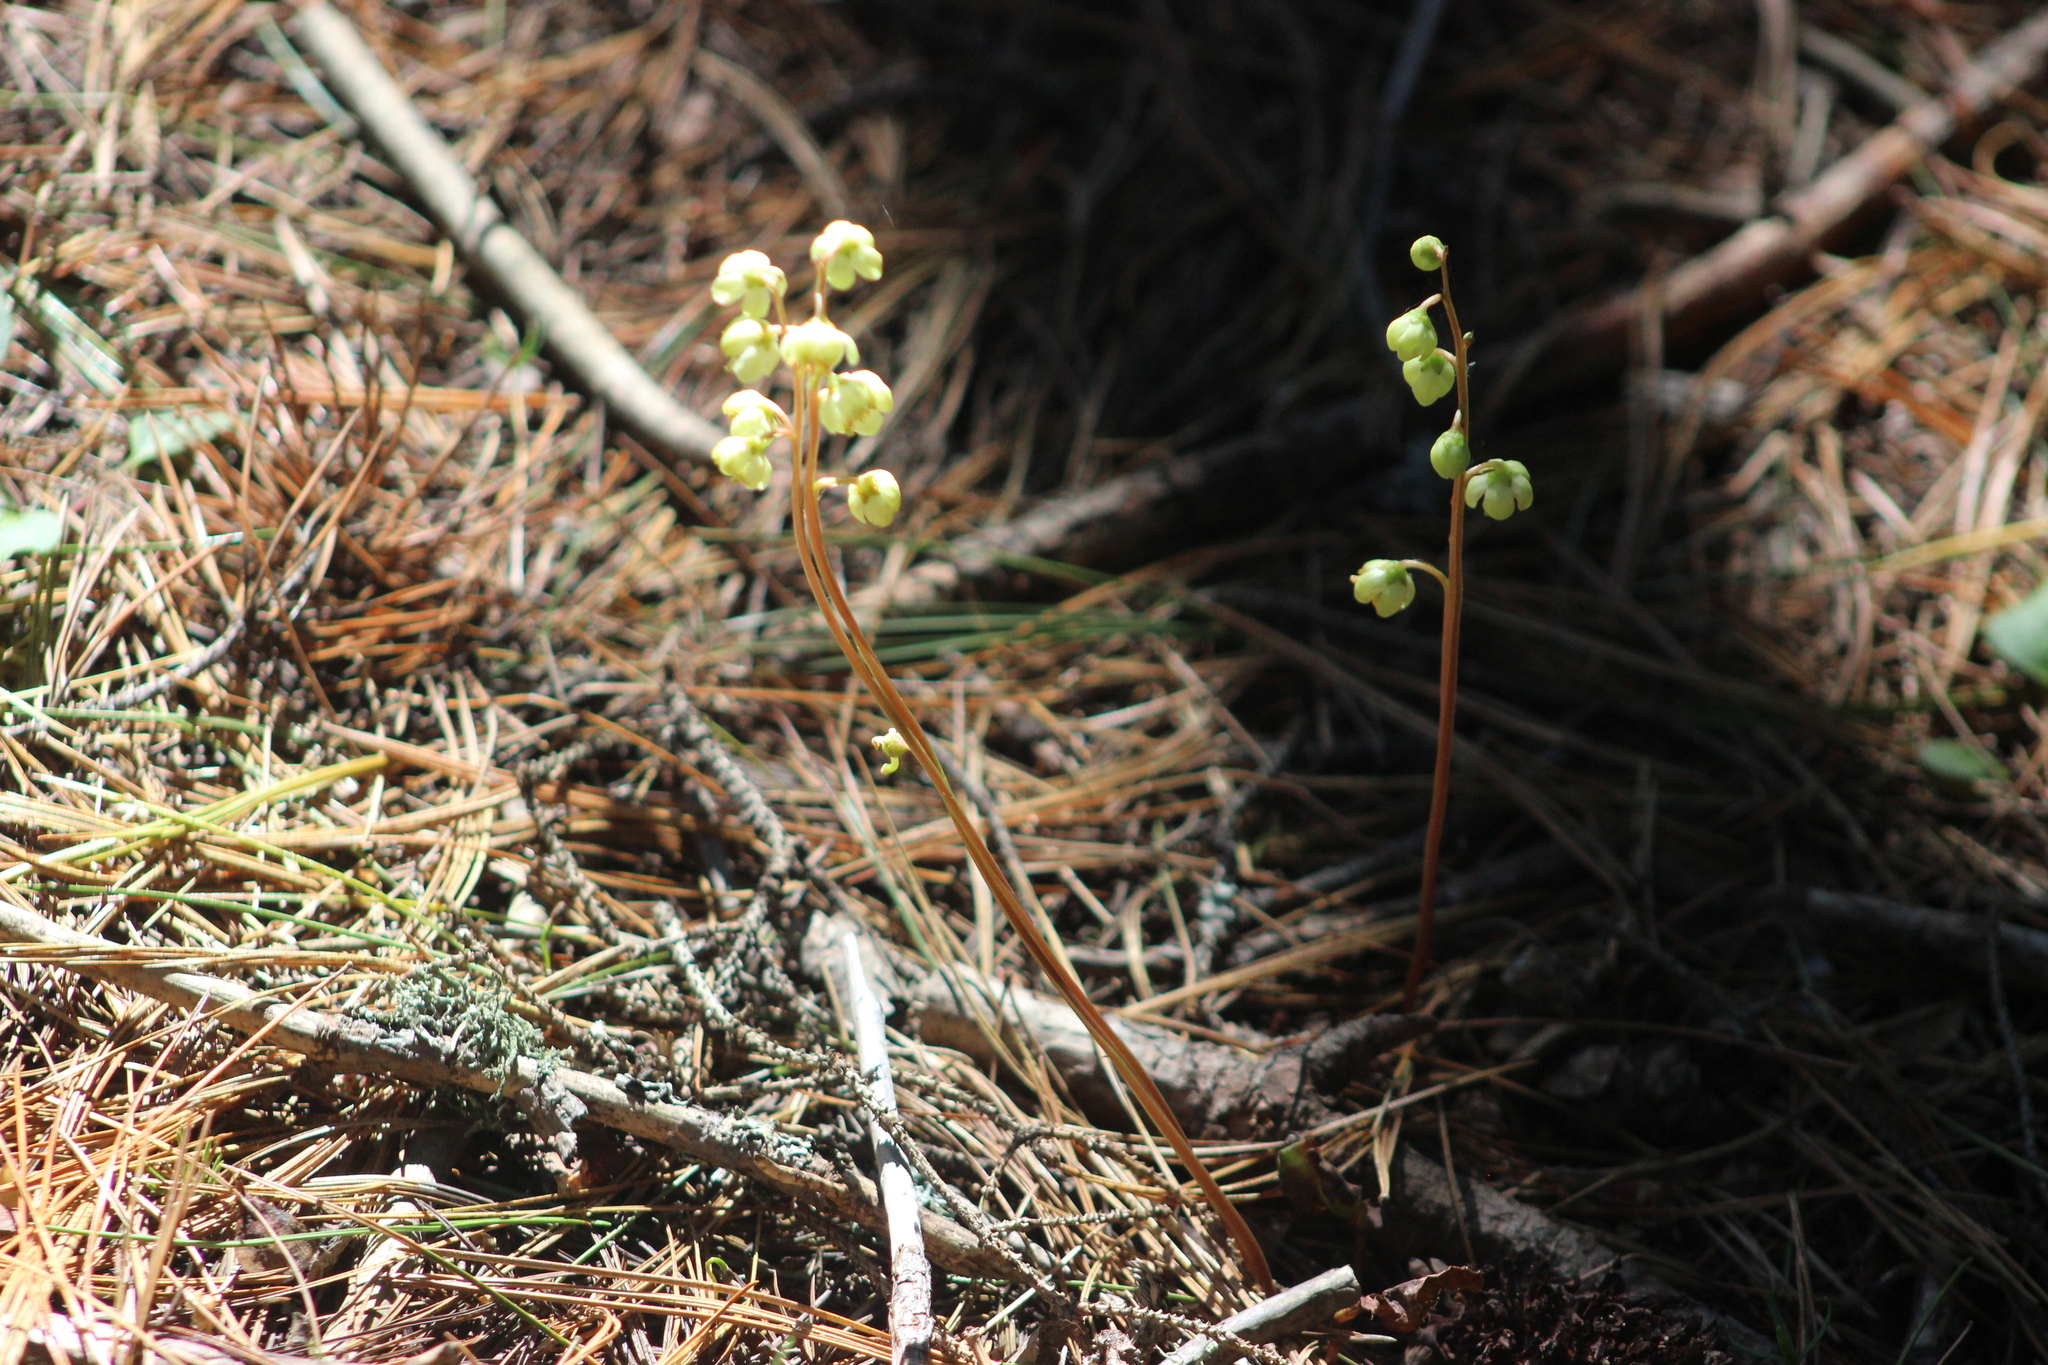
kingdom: Plantae
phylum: Tracheophyta
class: Magnoliopsida
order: Ericales
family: Ericaceae
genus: Pyrola
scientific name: Pyrola chlorantha
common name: Green wintergreen
